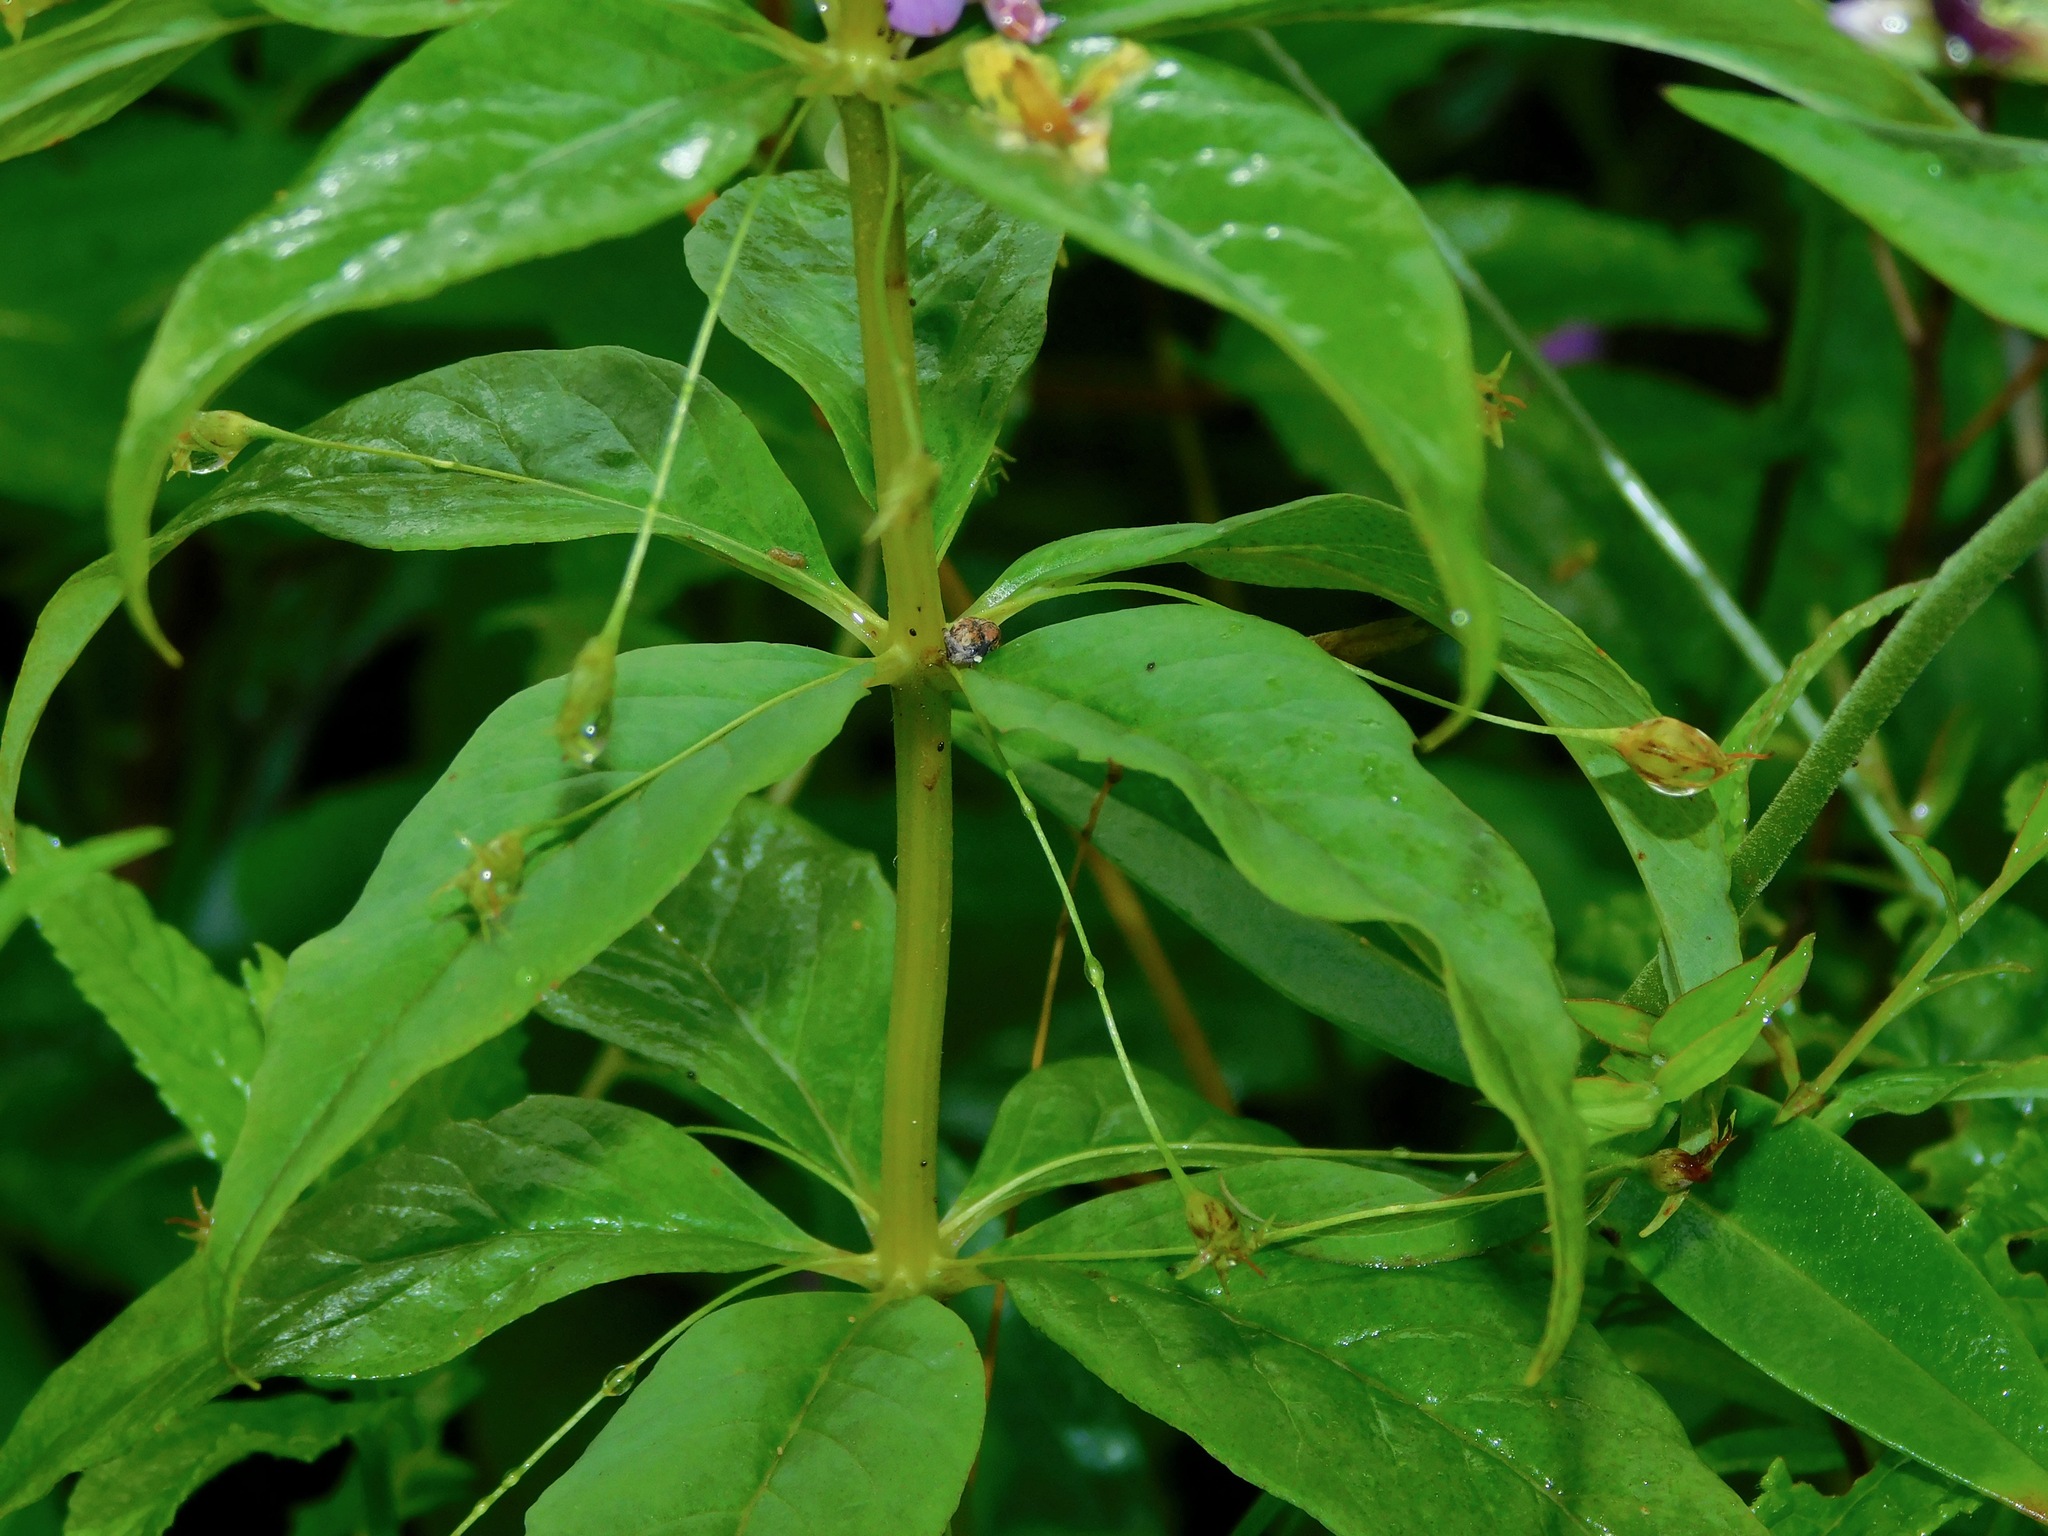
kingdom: Plantae
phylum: Tracheophyta
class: Magnoliopsida
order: Ericales
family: Primulaceae
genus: Lysimachia
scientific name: Lysimachia quadrifolia
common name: Whorled loosestrife
